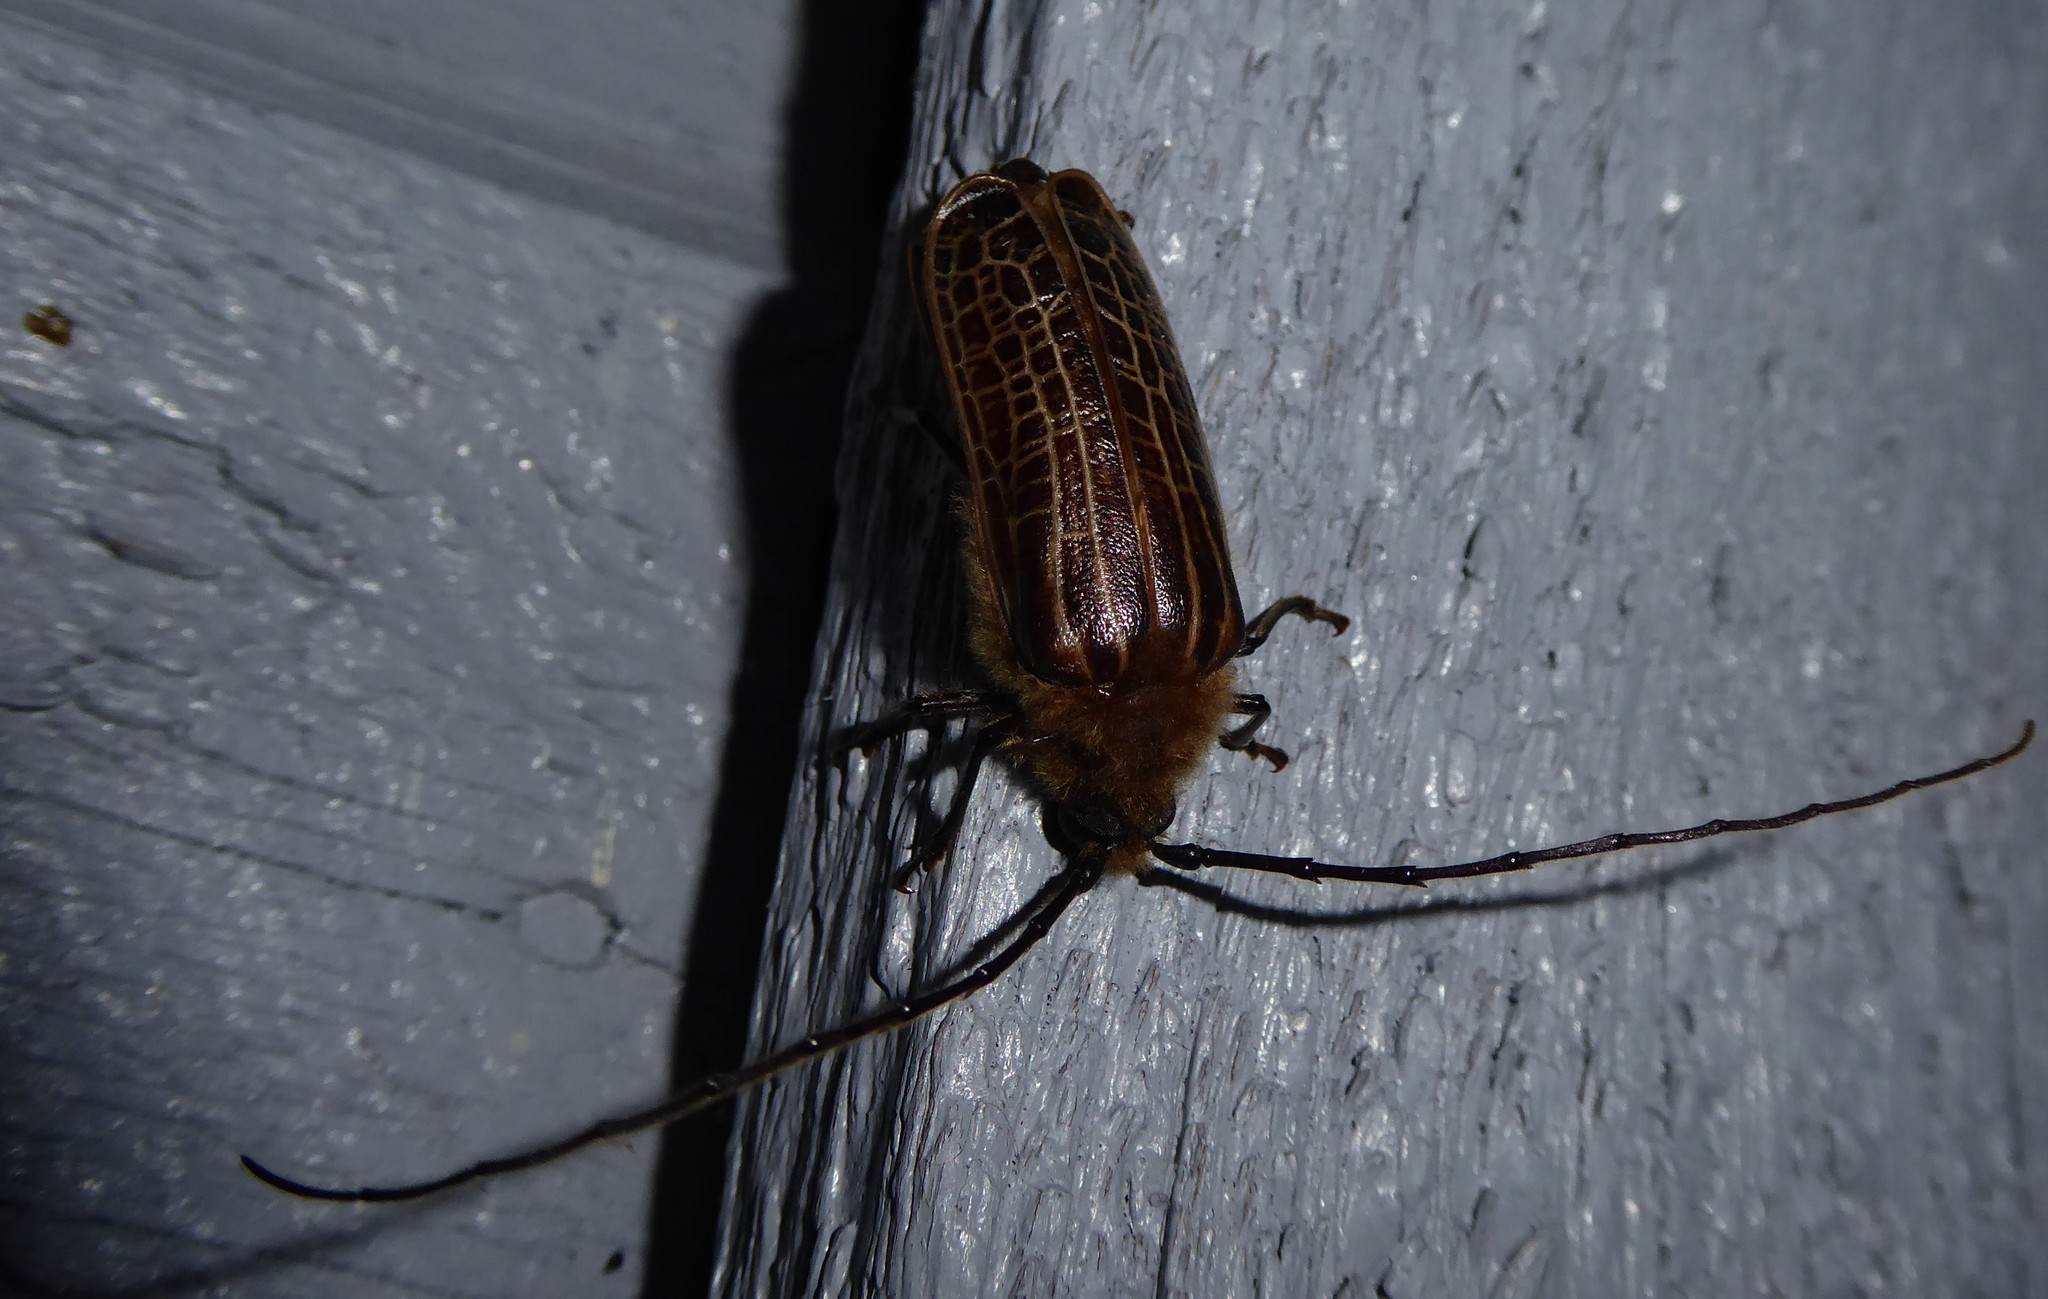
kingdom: Animalia
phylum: Arthropoda
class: Insecta
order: Coleoptera
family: Cerambycidae
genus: Prionoplus
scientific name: Prionoplus reticularis
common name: Huhu beetle
